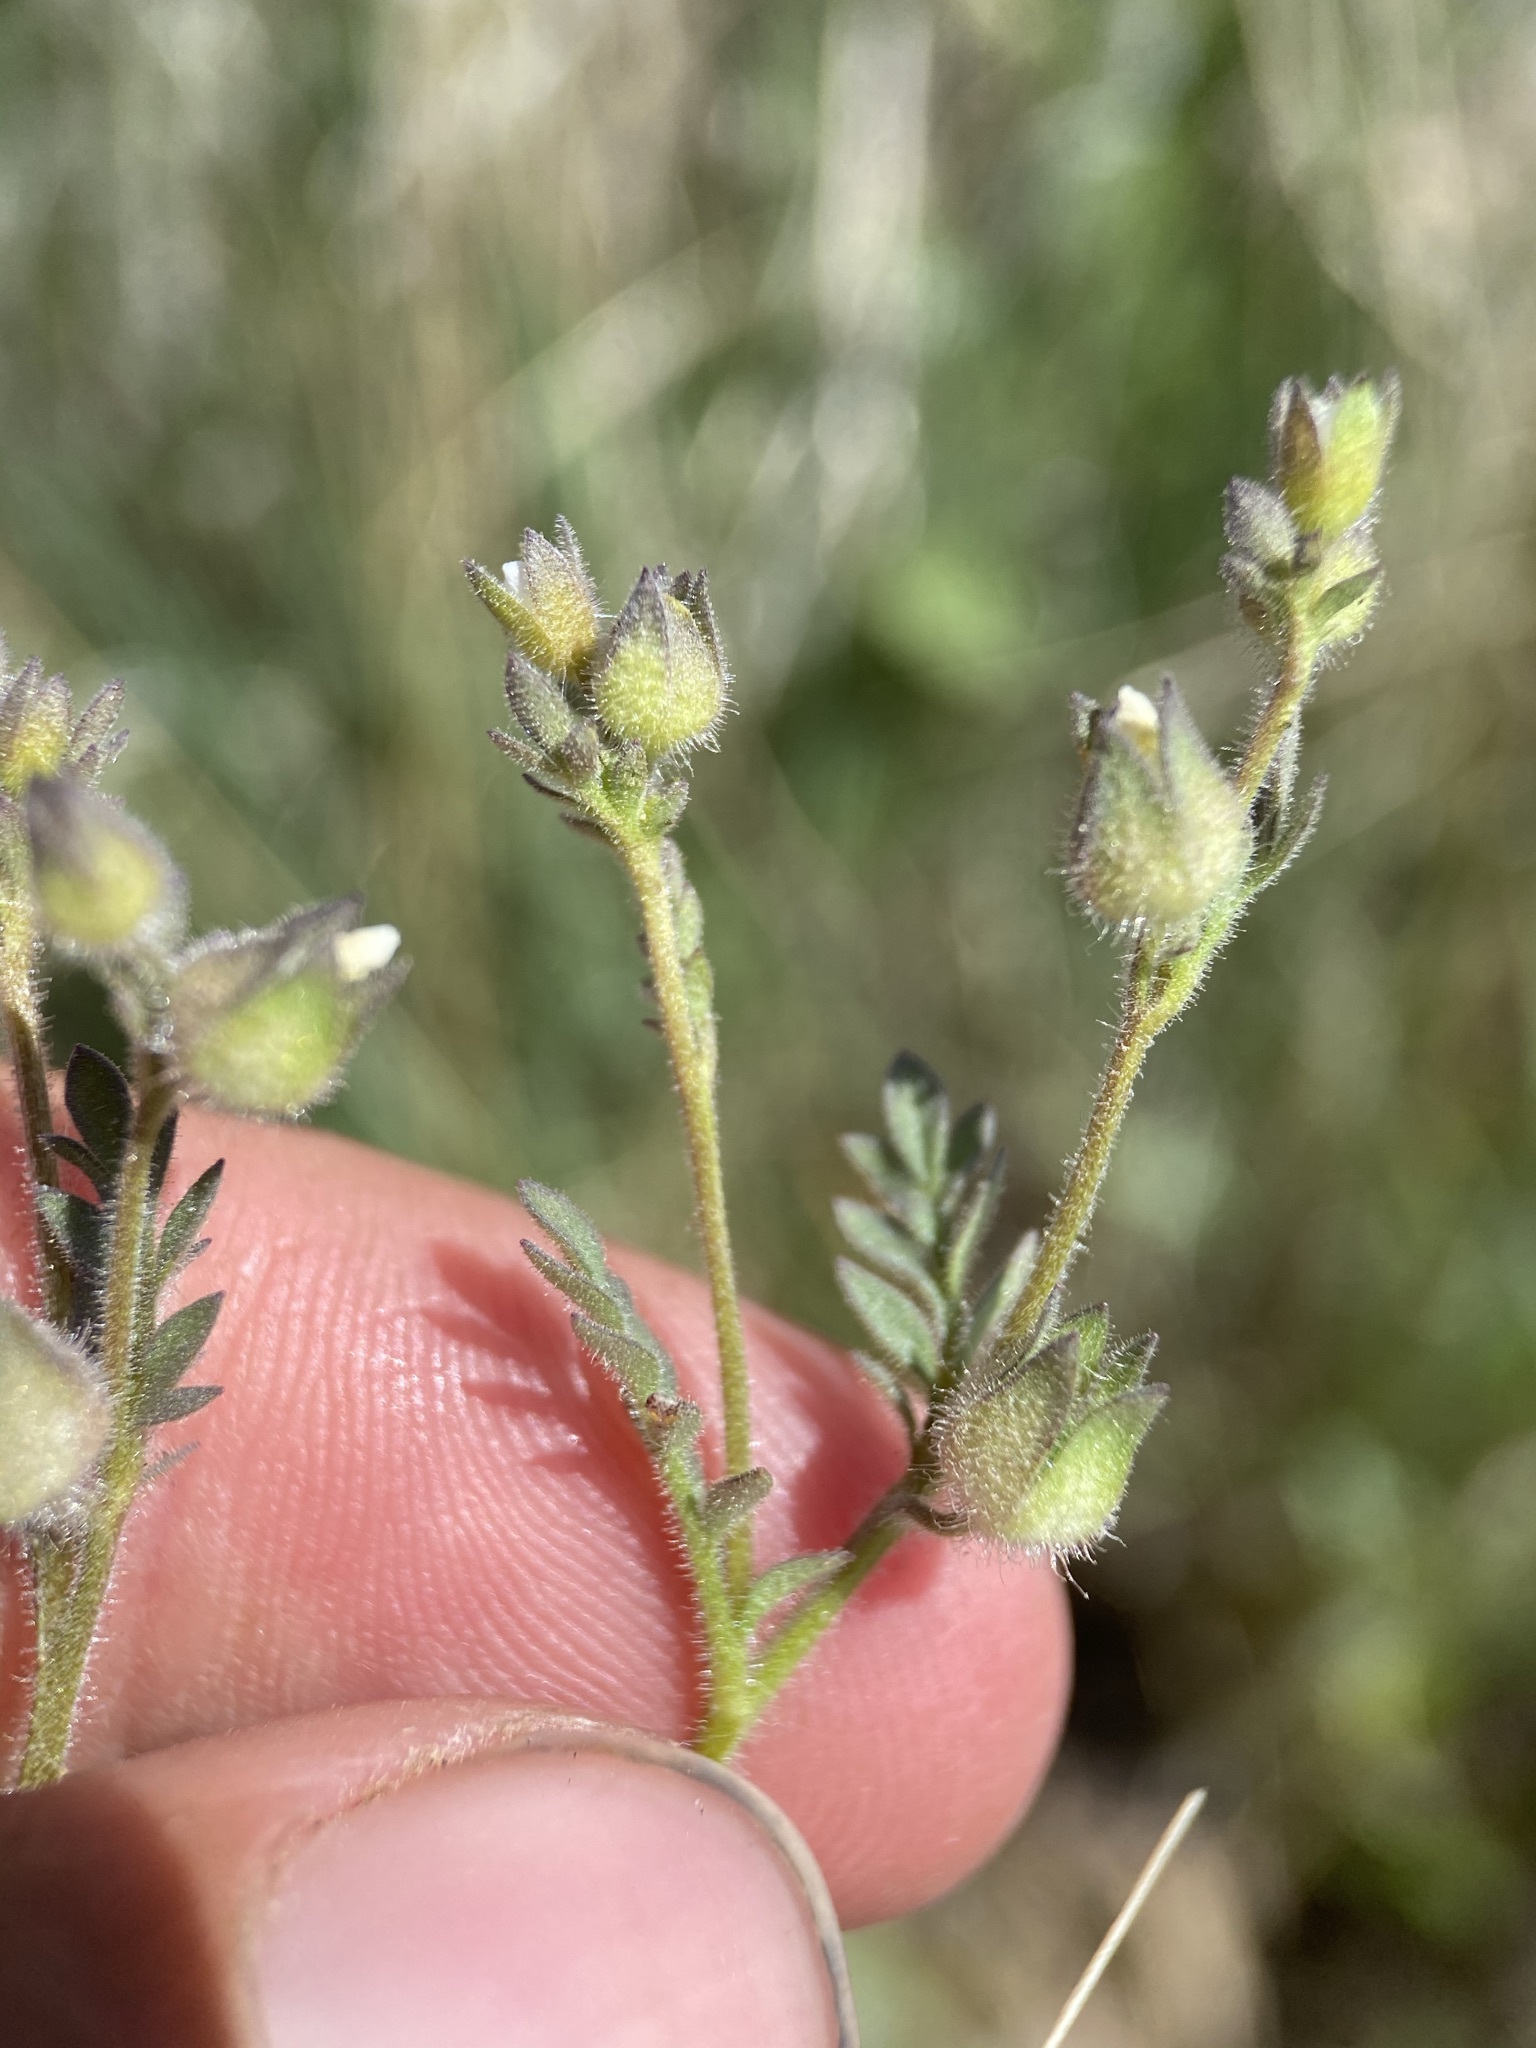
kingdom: Plantae
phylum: Tracheophyta
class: Magnoliopsida
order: Ericales
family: Polemoniaceae
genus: Polemonium
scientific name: Polemonium micranthum
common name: Annual jacob's-ladder
